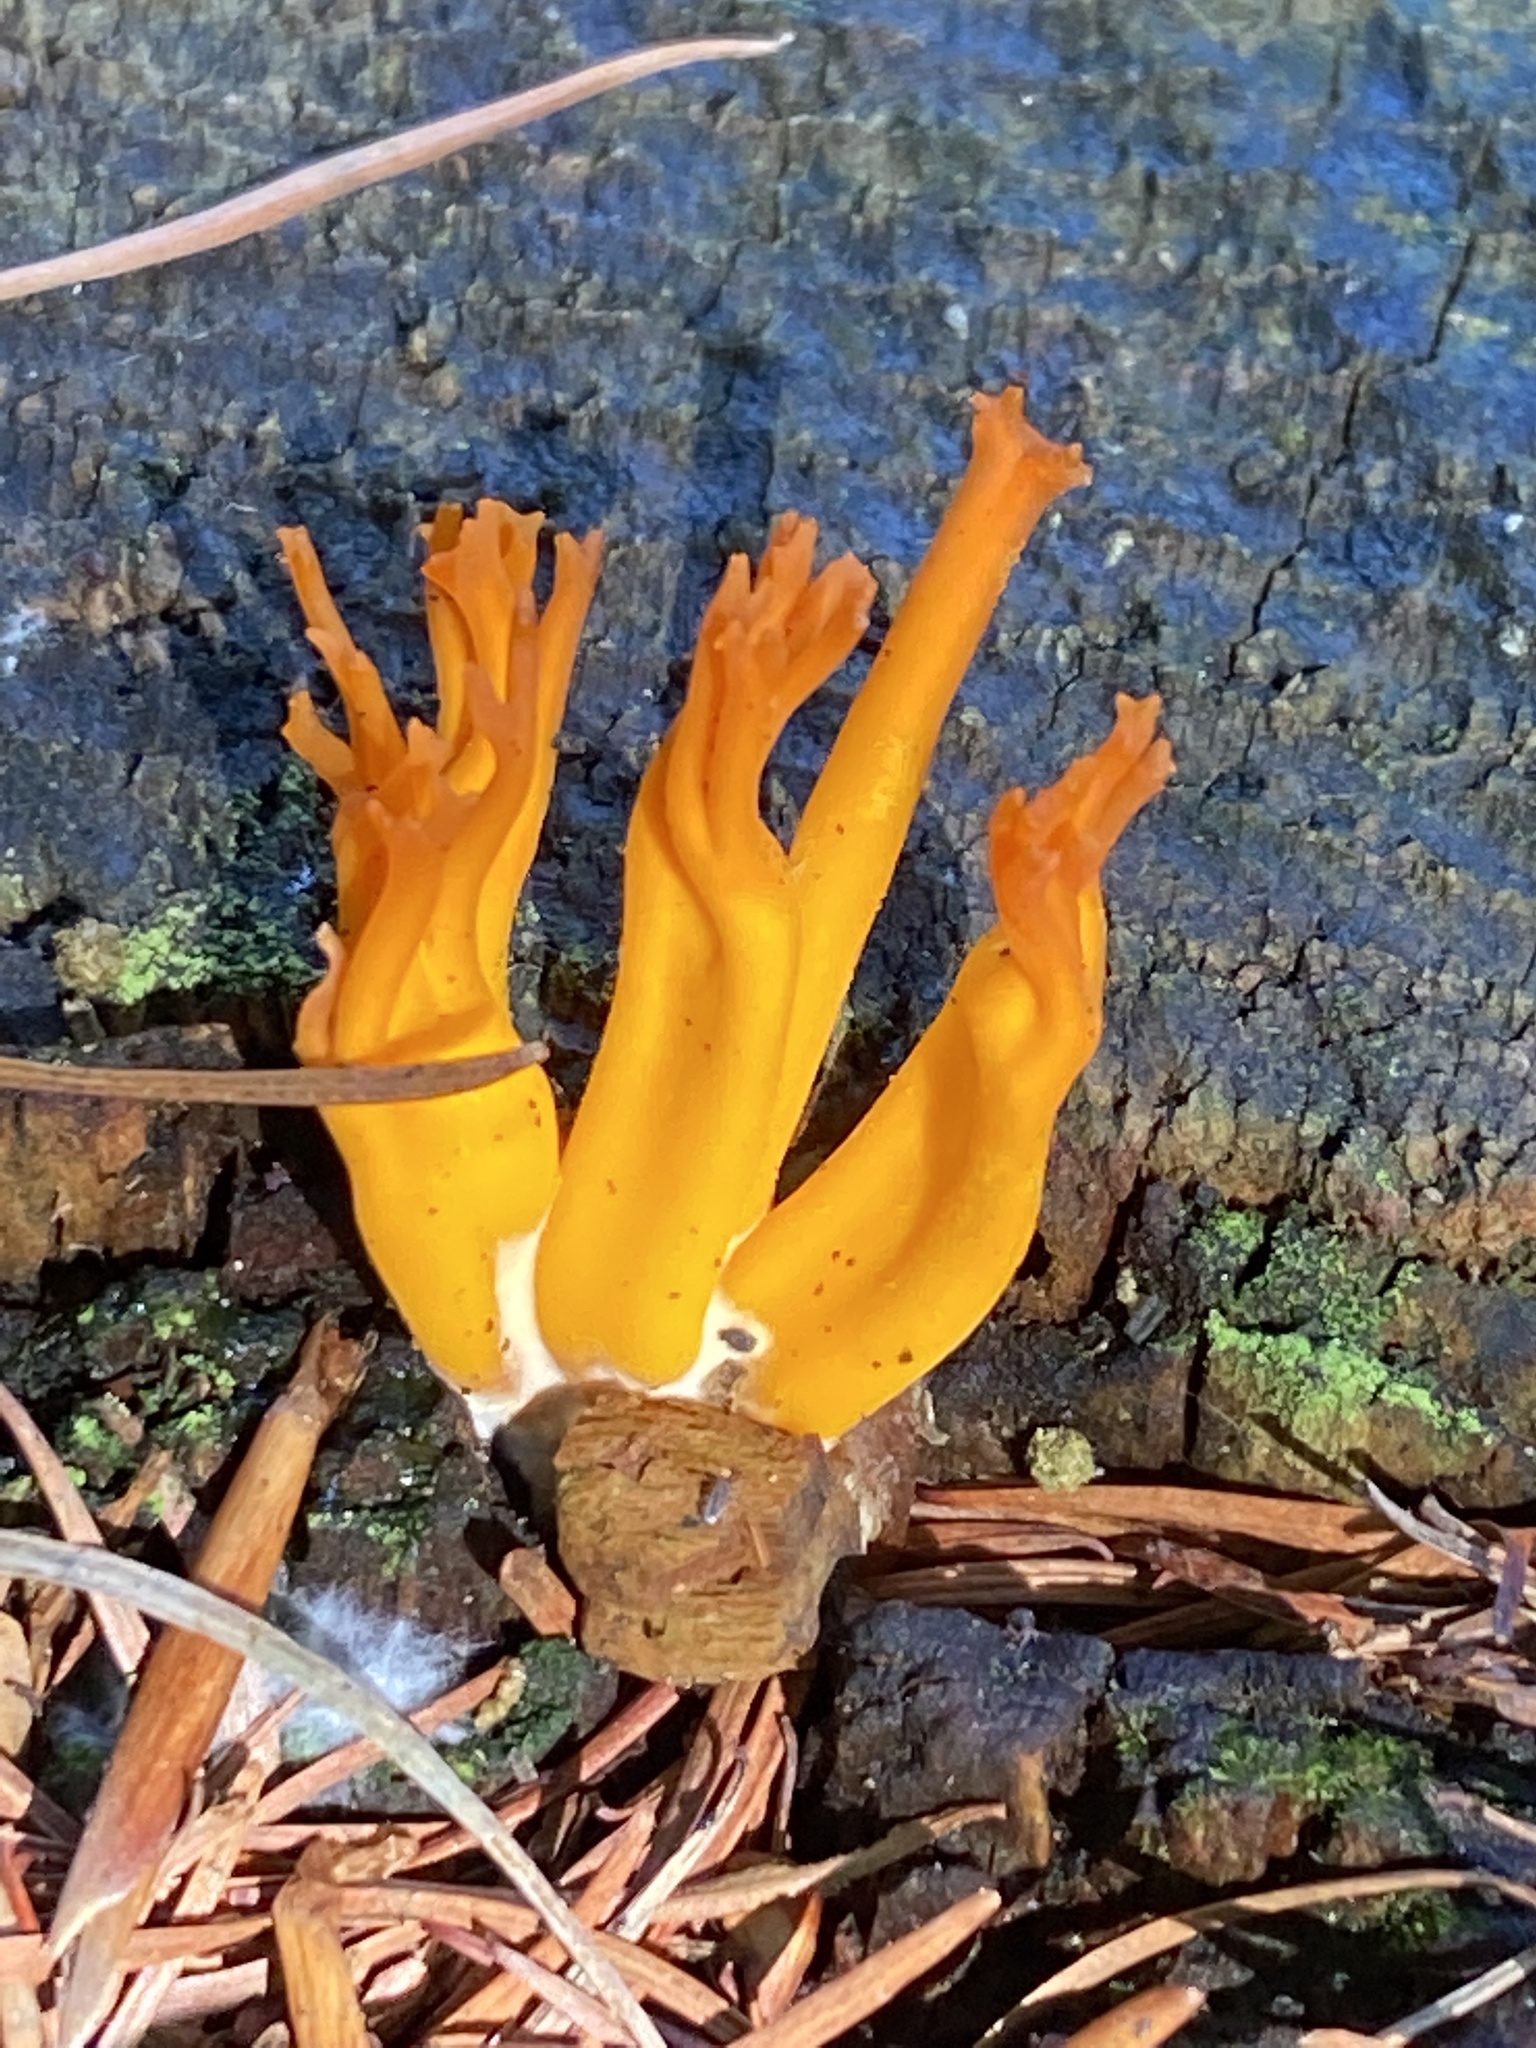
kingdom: Fungi
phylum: Basidiomycota
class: Dacrymycetes
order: Dacrymycetales
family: Dacrymycetaceae
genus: Calocera
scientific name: Calocera viscosa
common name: Yellow stagshorn
